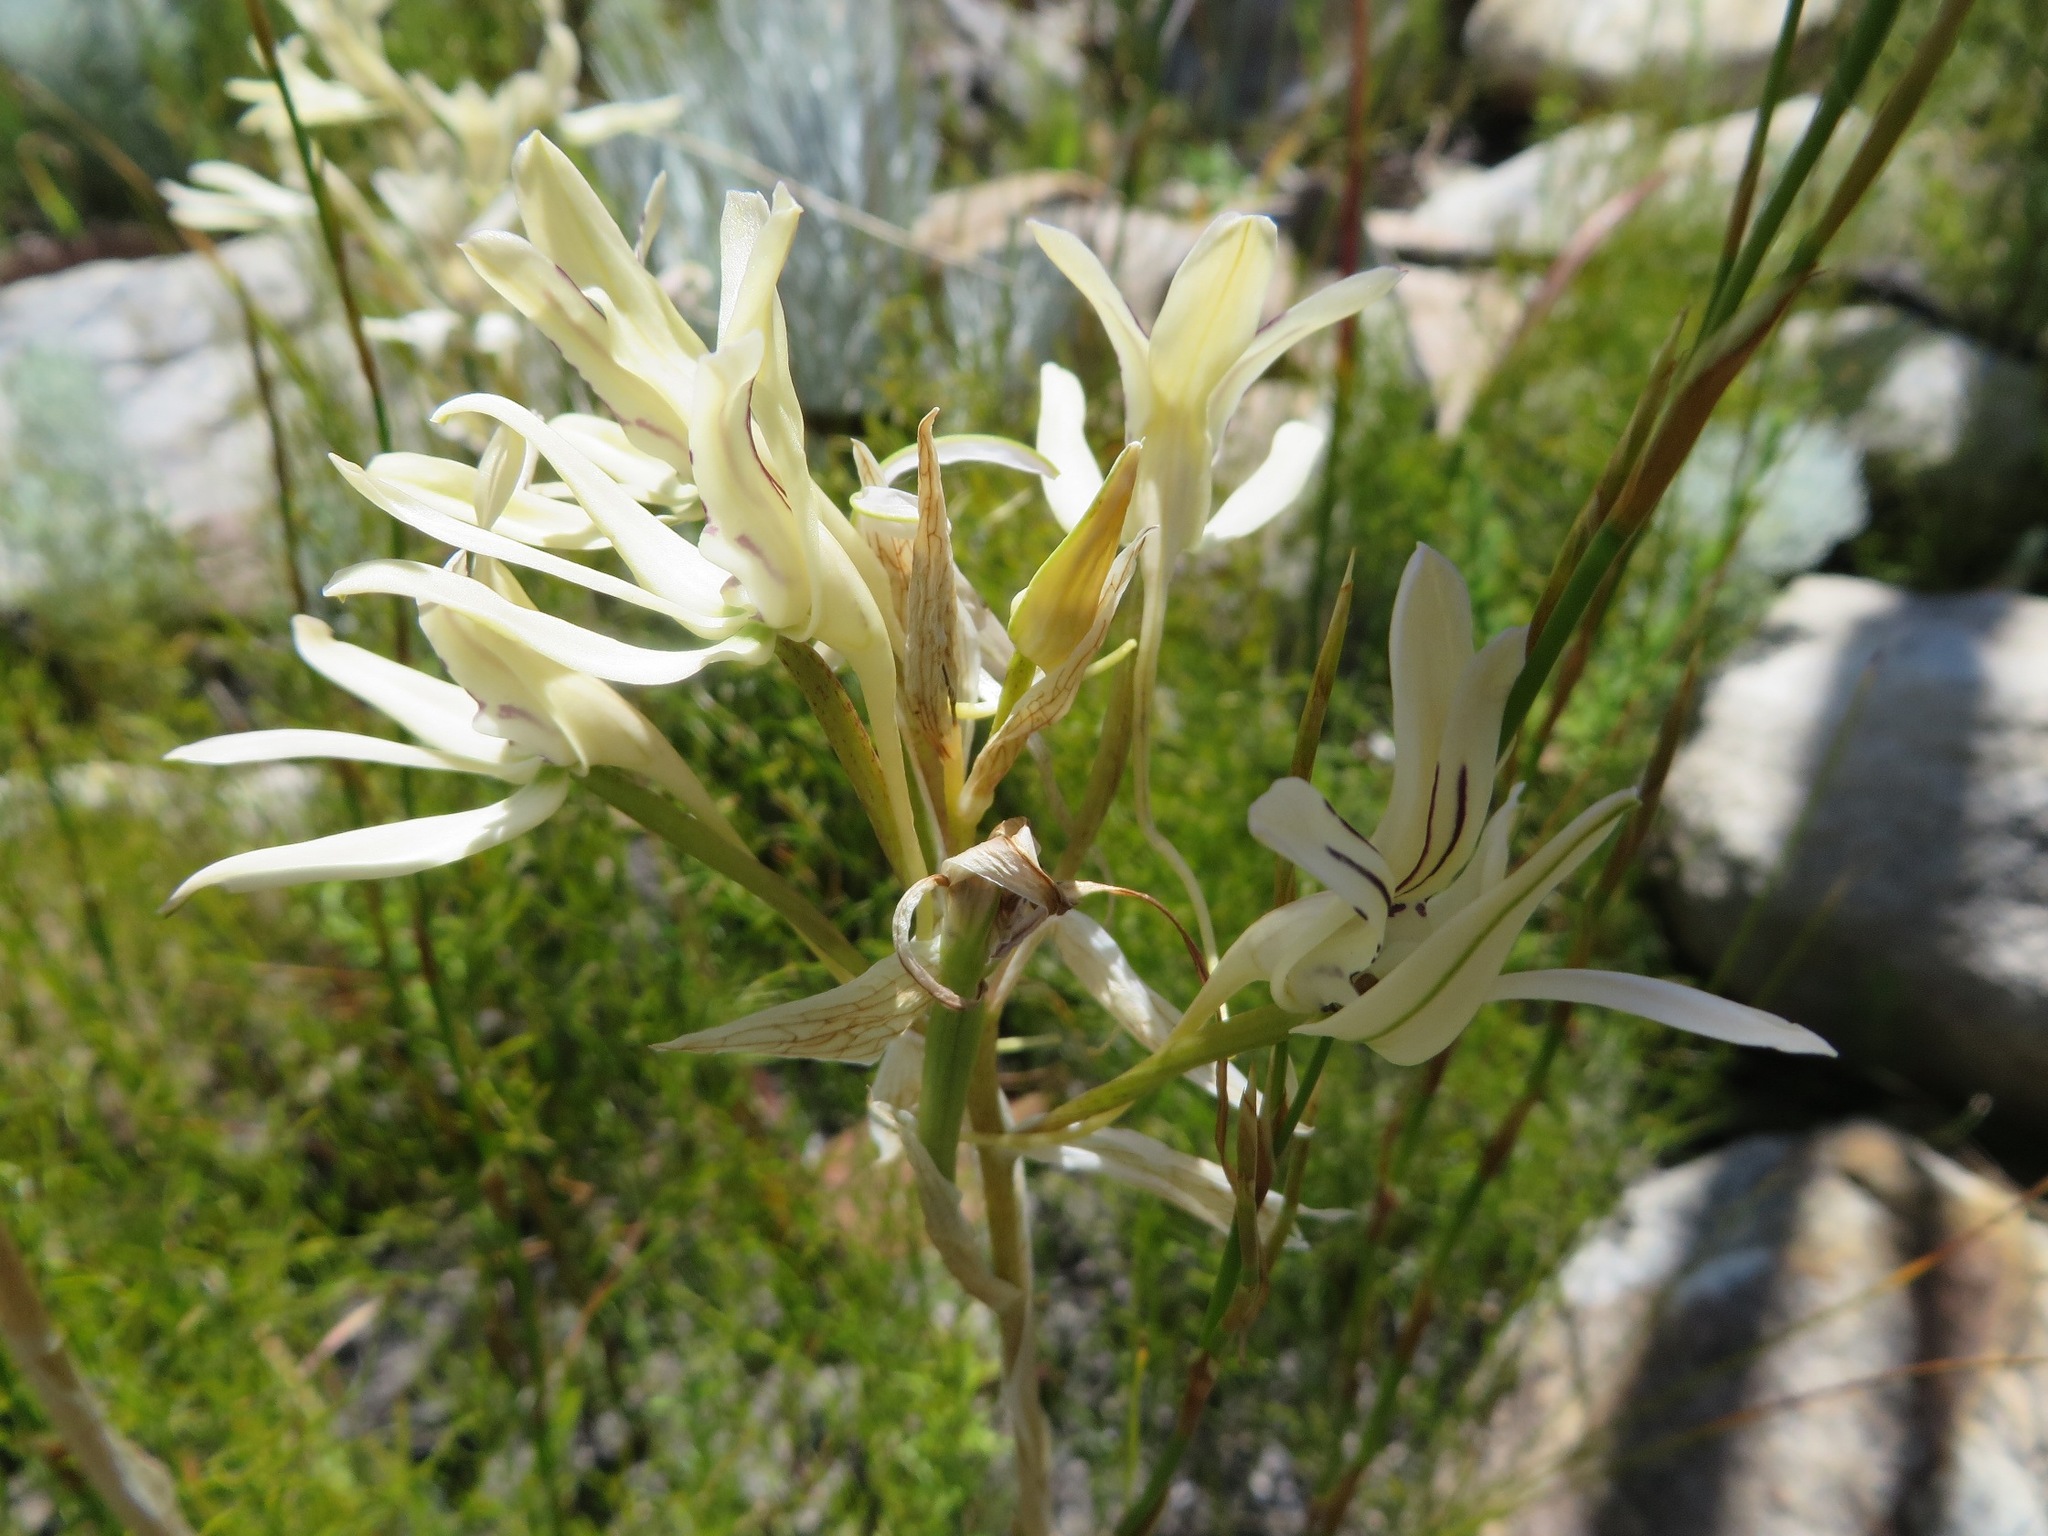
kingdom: Plantae
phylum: Tracheophyta
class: Liliopsida
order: Asparagales
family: Orchidaceae
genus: Disa
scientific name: Disa harveyana
